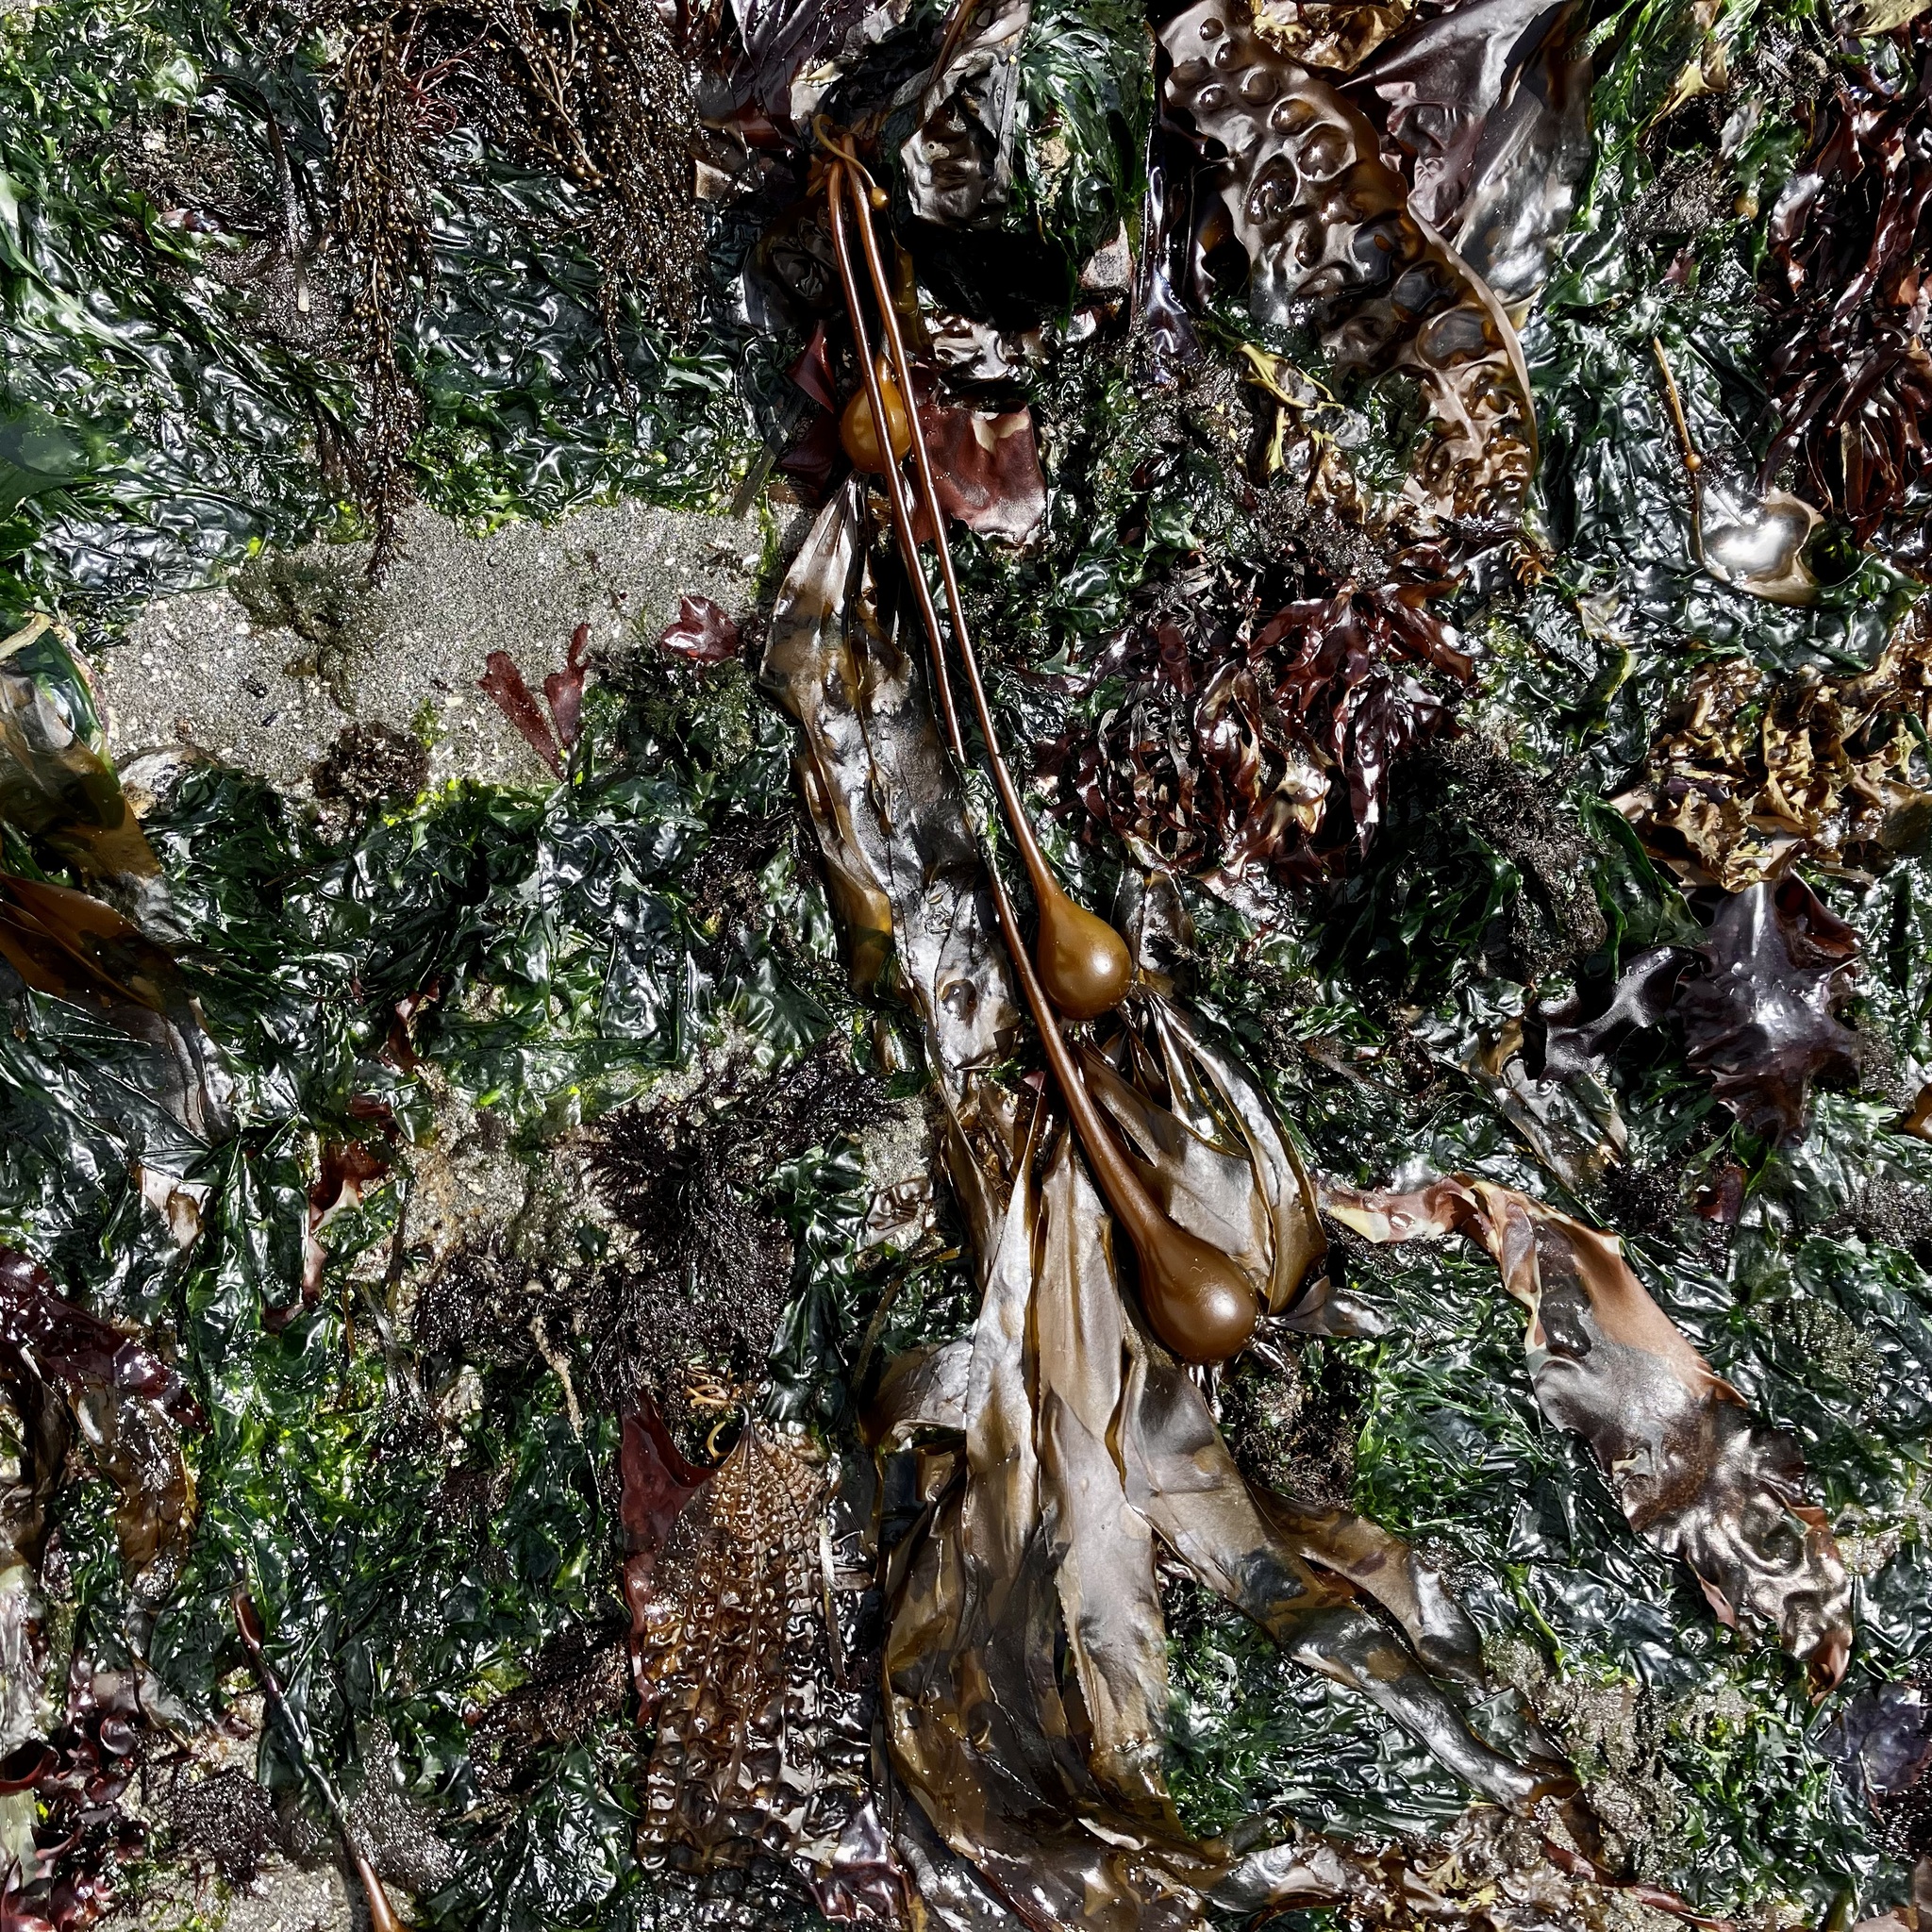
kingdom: Chromista
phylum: Ochrophyta
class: Phaeophyceae
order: Laminariales
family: Laminariaceae
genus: Nereocystis
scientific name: Nereocystis luetkeana
